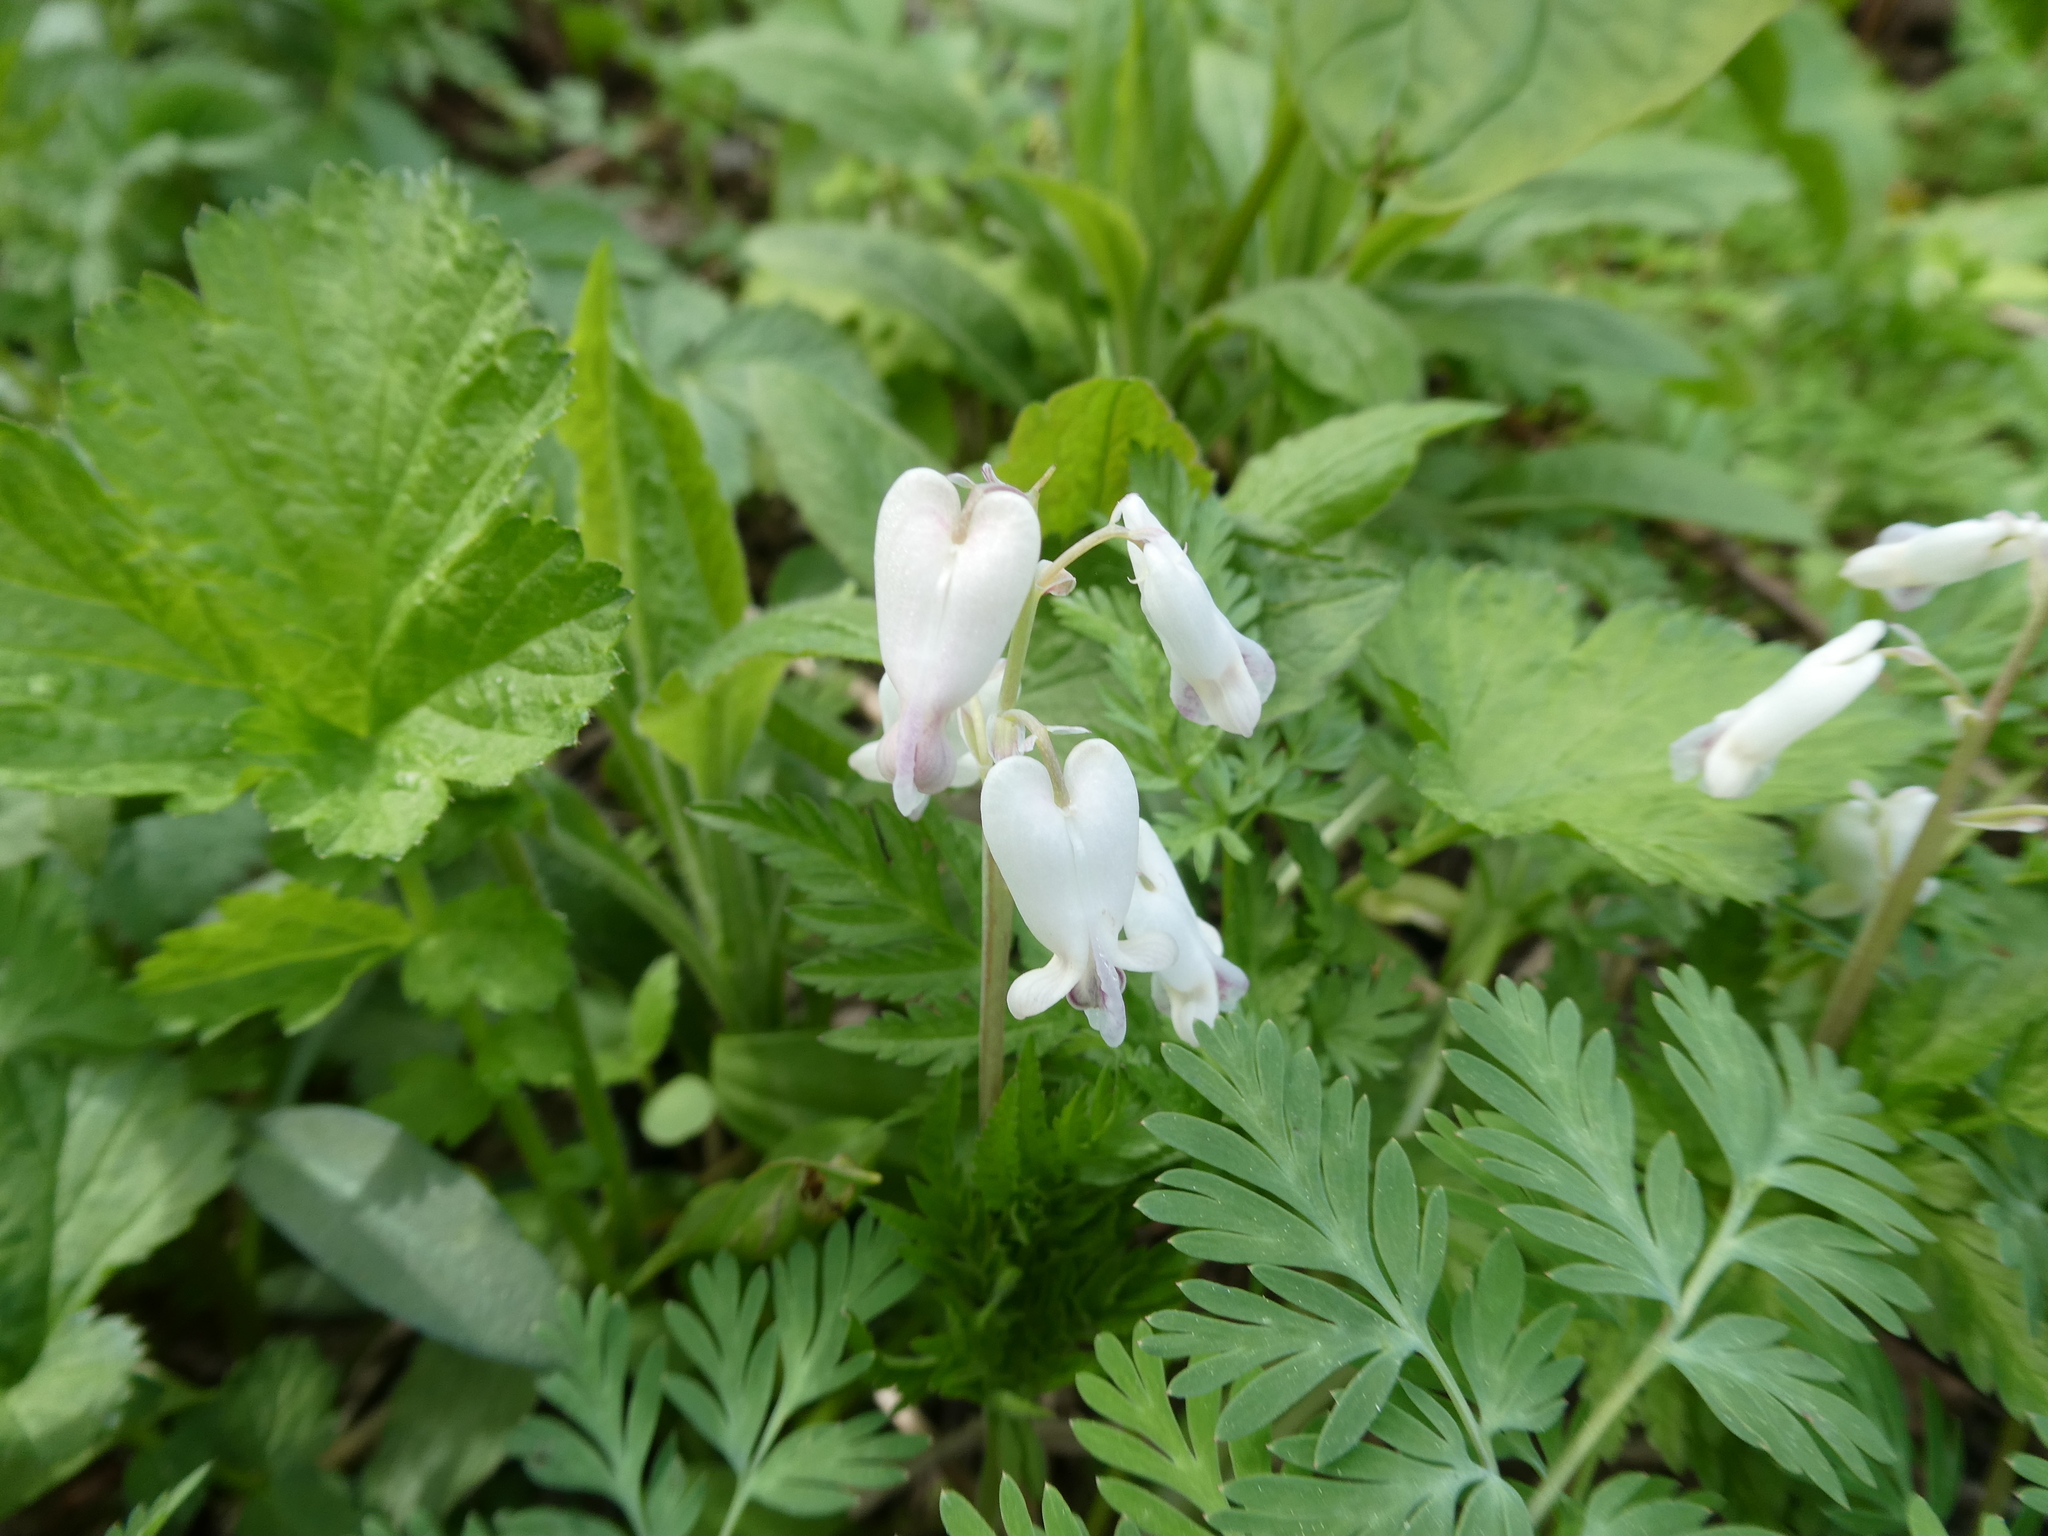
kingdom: Plantae
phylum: Tracheophyta
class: Magnoliopsida
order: Ranunculales
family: Papaveraceae
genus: Dicentra
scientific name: Dicentra canadensis
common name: Squirrel-corn
